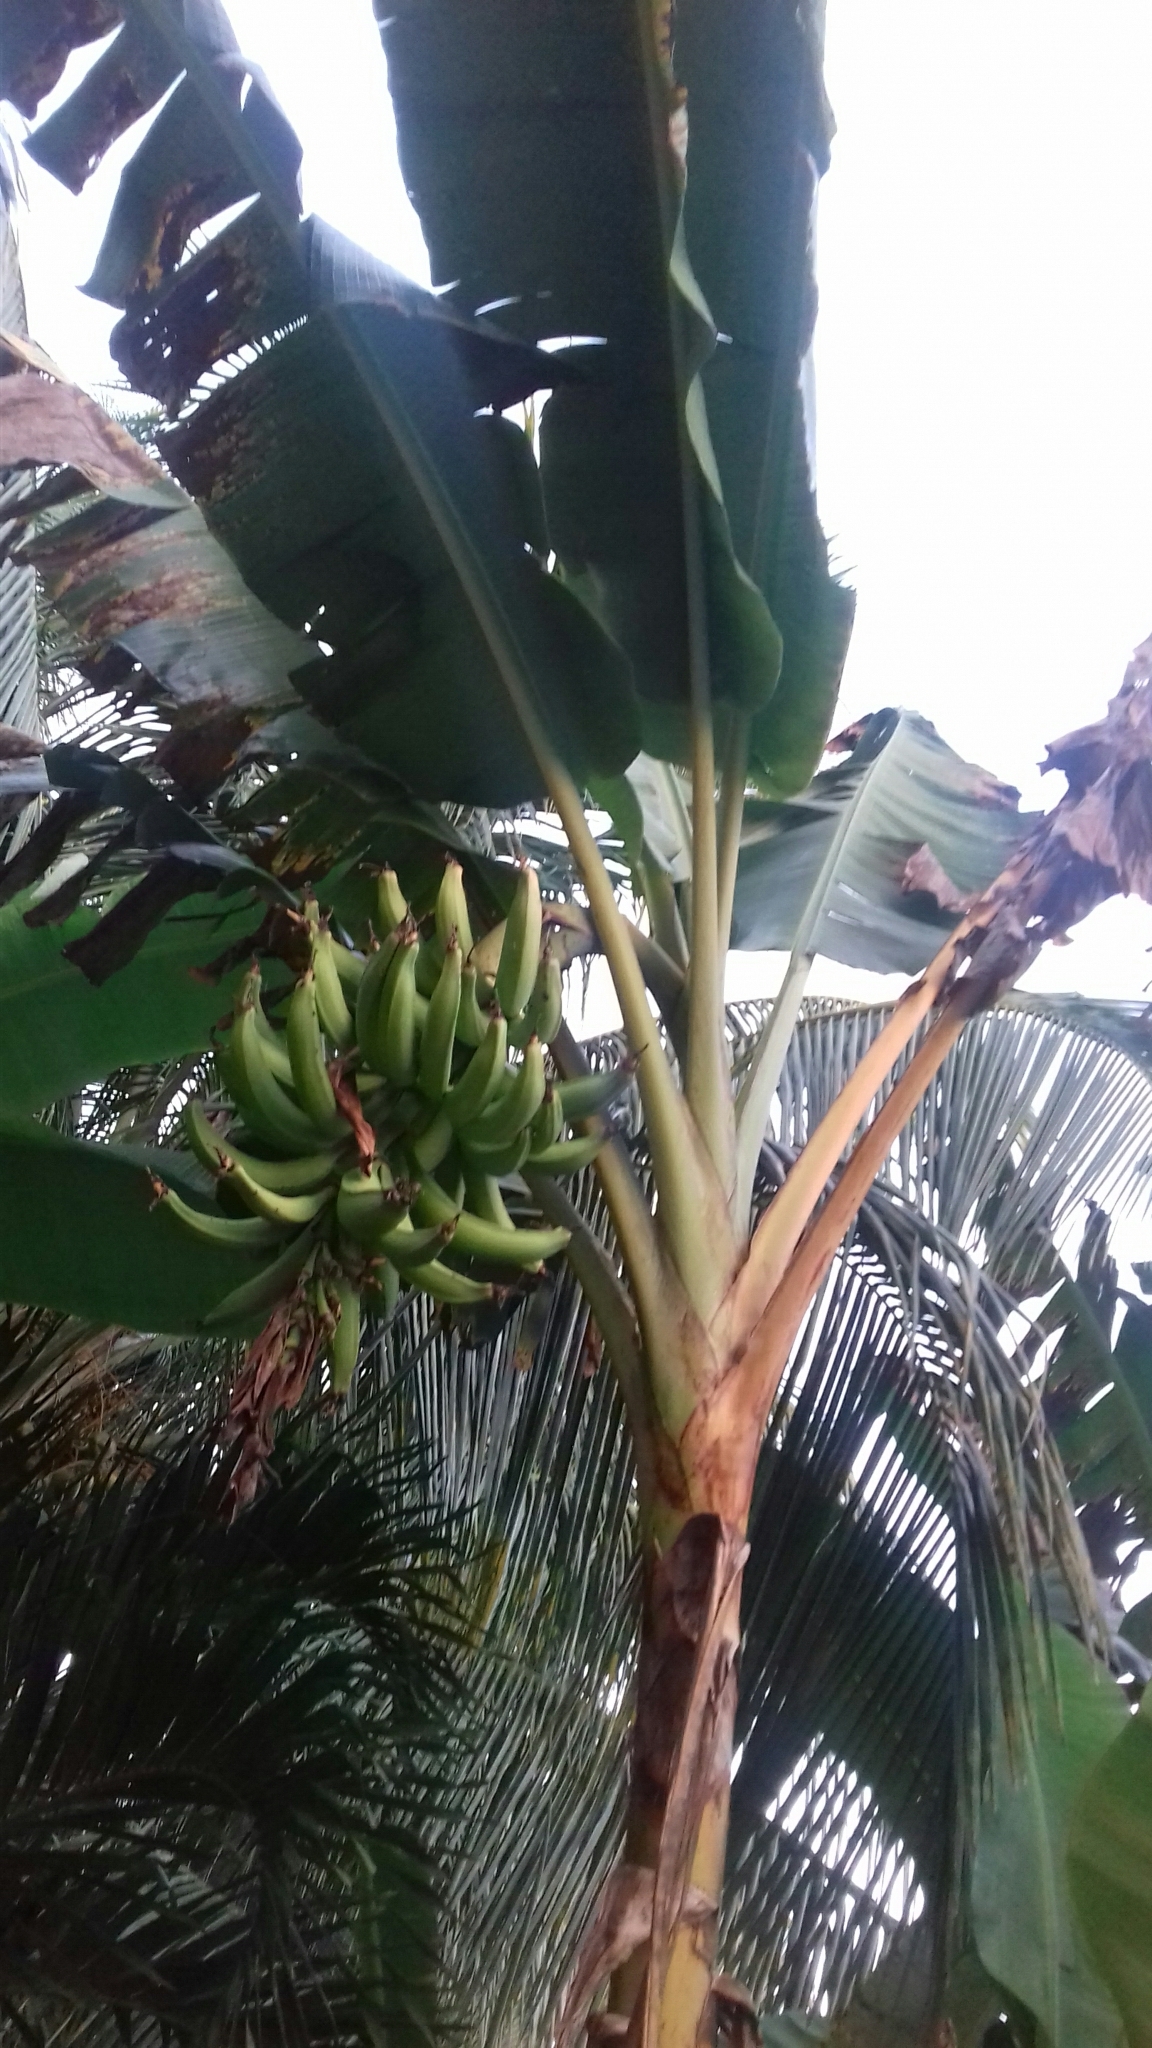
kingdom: Plantae
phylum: Tracheophyta
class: Liliopsida
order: Zingiberales
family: Musaceae
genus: Musa
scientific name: Musa paradisiaca
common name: French plantain
